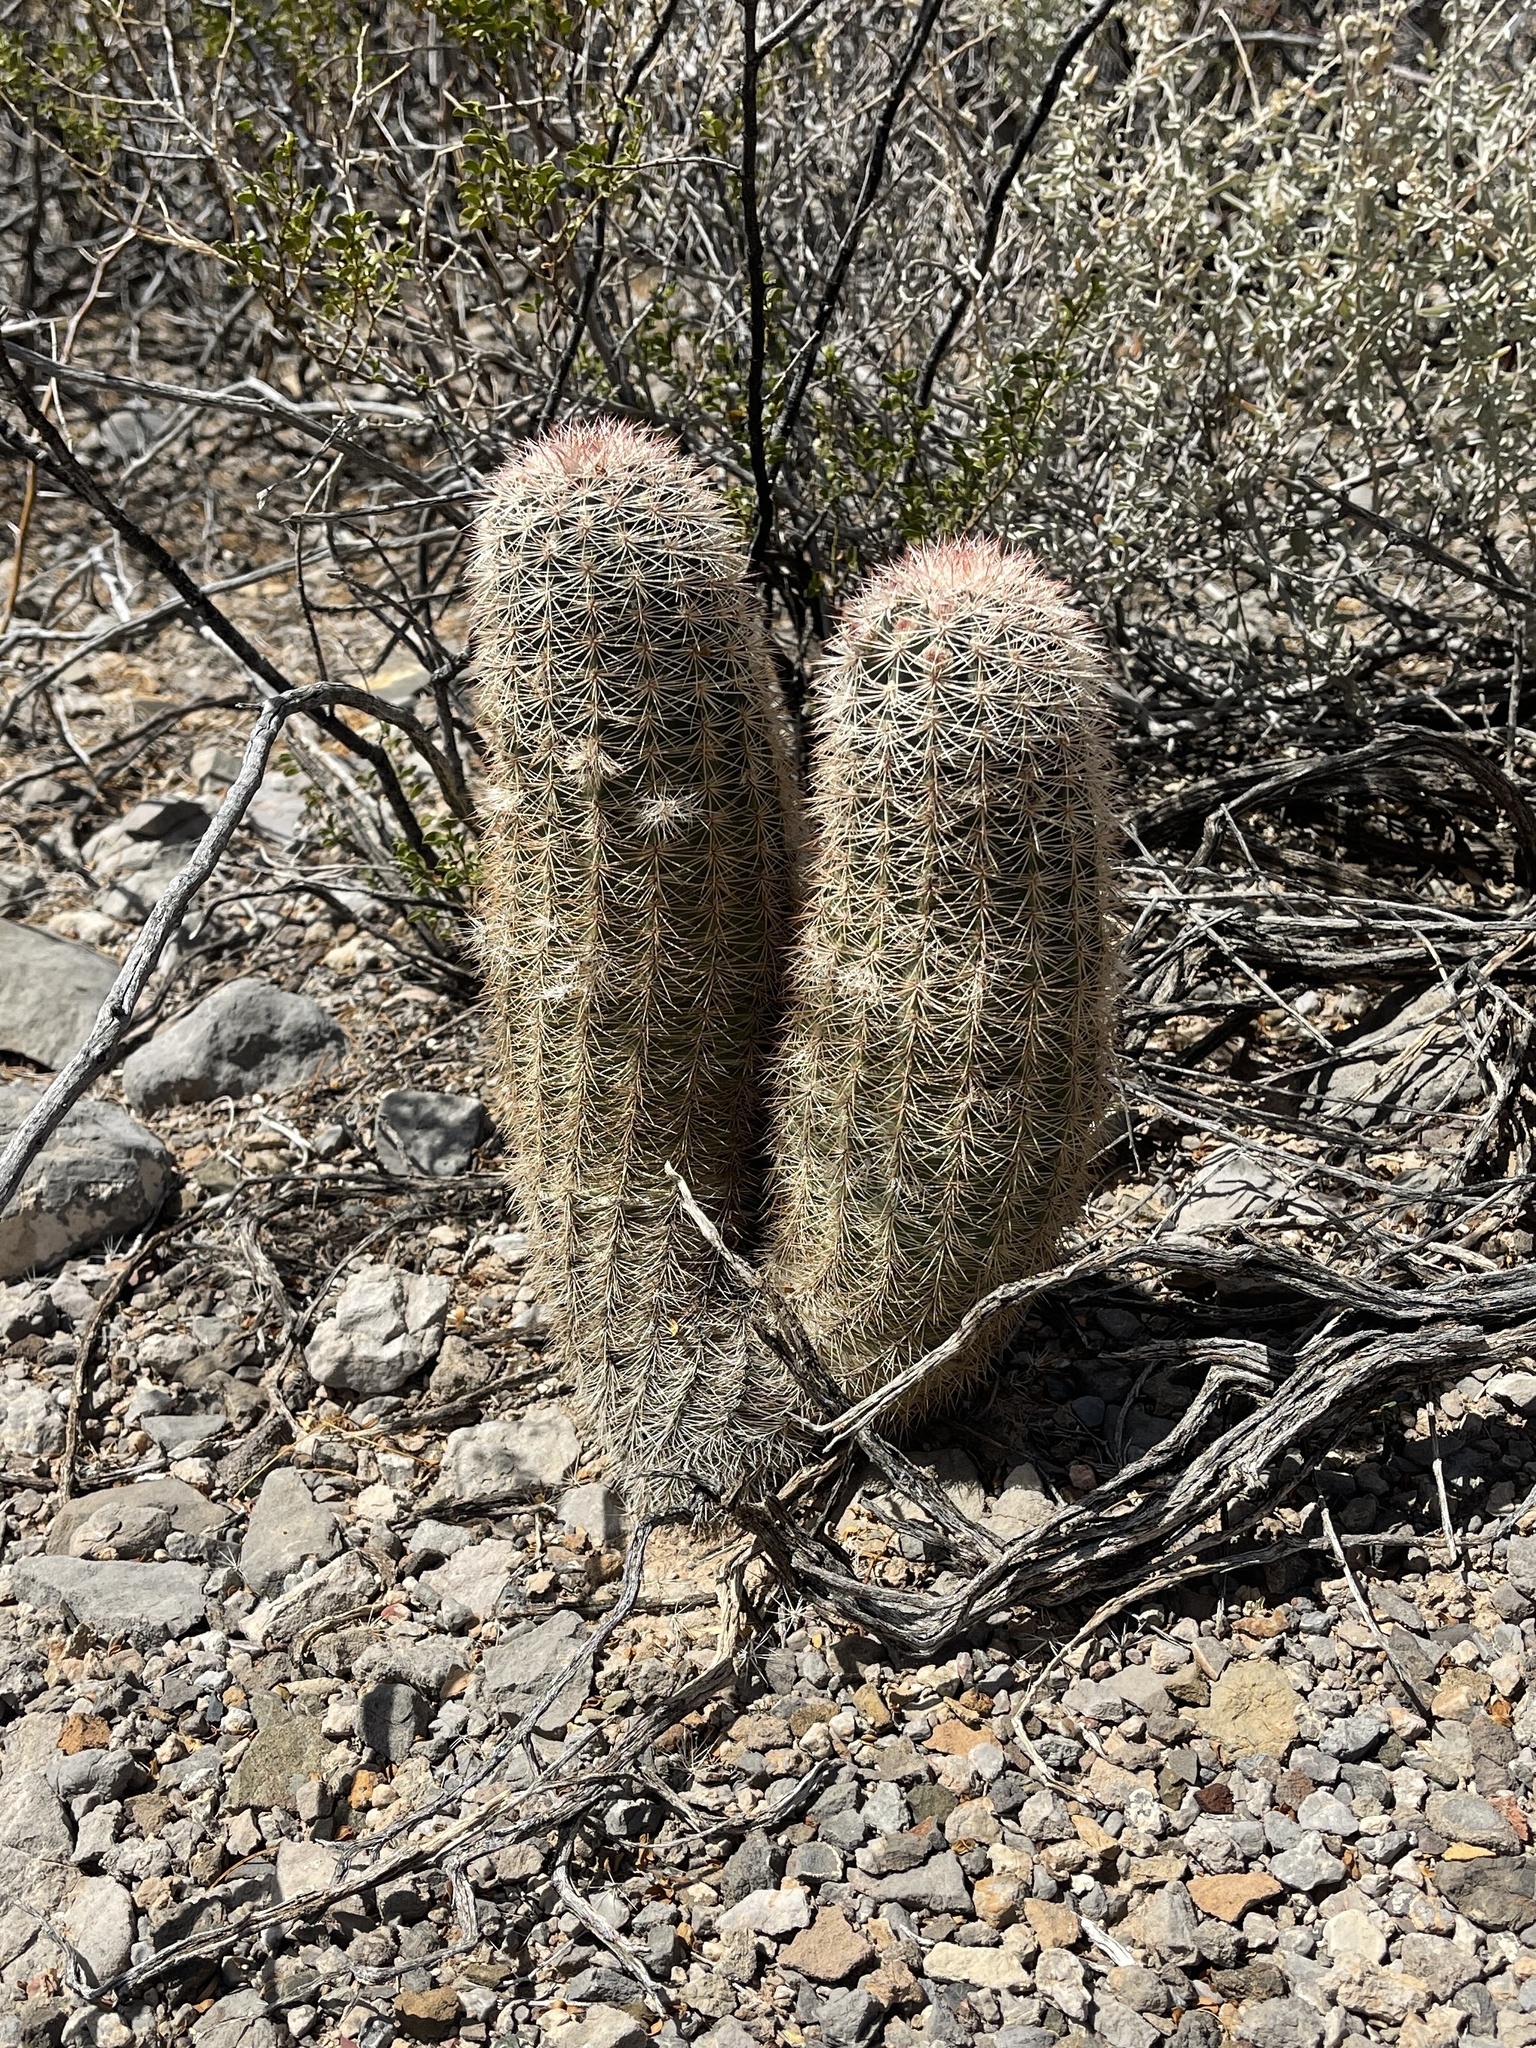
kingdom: Plantae
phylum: Tracheophyta
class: Magnoliopsida
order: Caryophyllales
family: Cactaceae
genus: Echinocereus
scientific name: Echinocereus dasyacanthus
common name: Spiny hedgehog cactus
